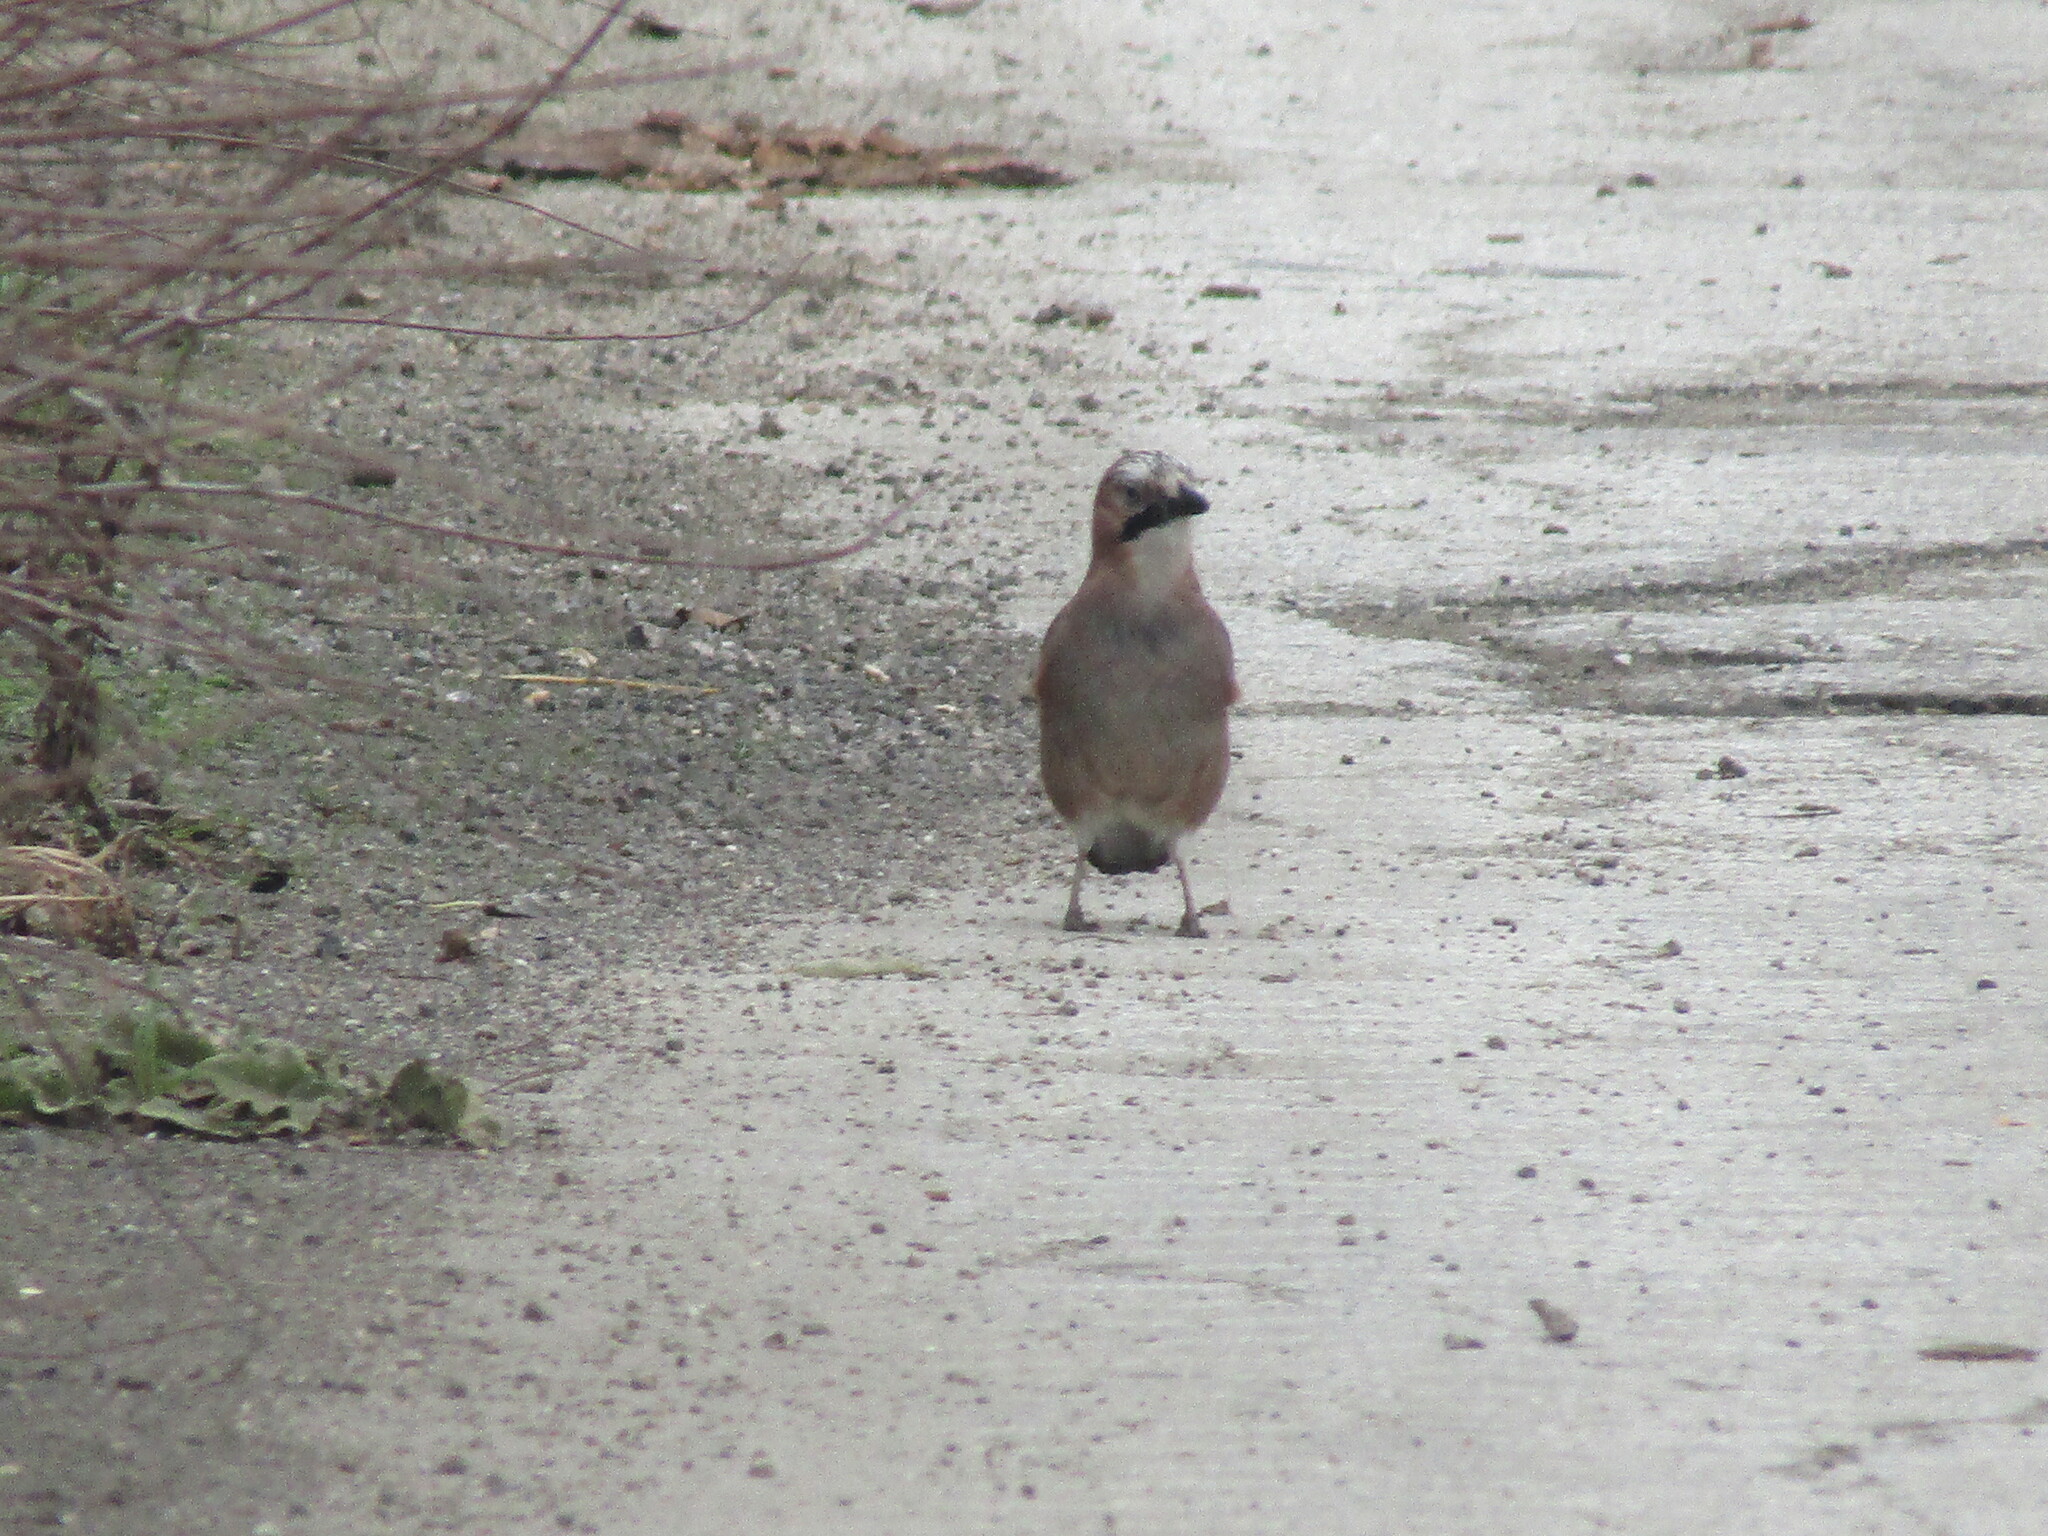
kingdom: Animalia
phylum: Chordata
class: Aves
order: Passeriformes
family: Corvidae
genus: Garrulus
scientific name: Garrulus glandarius
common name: Eurasian jay
